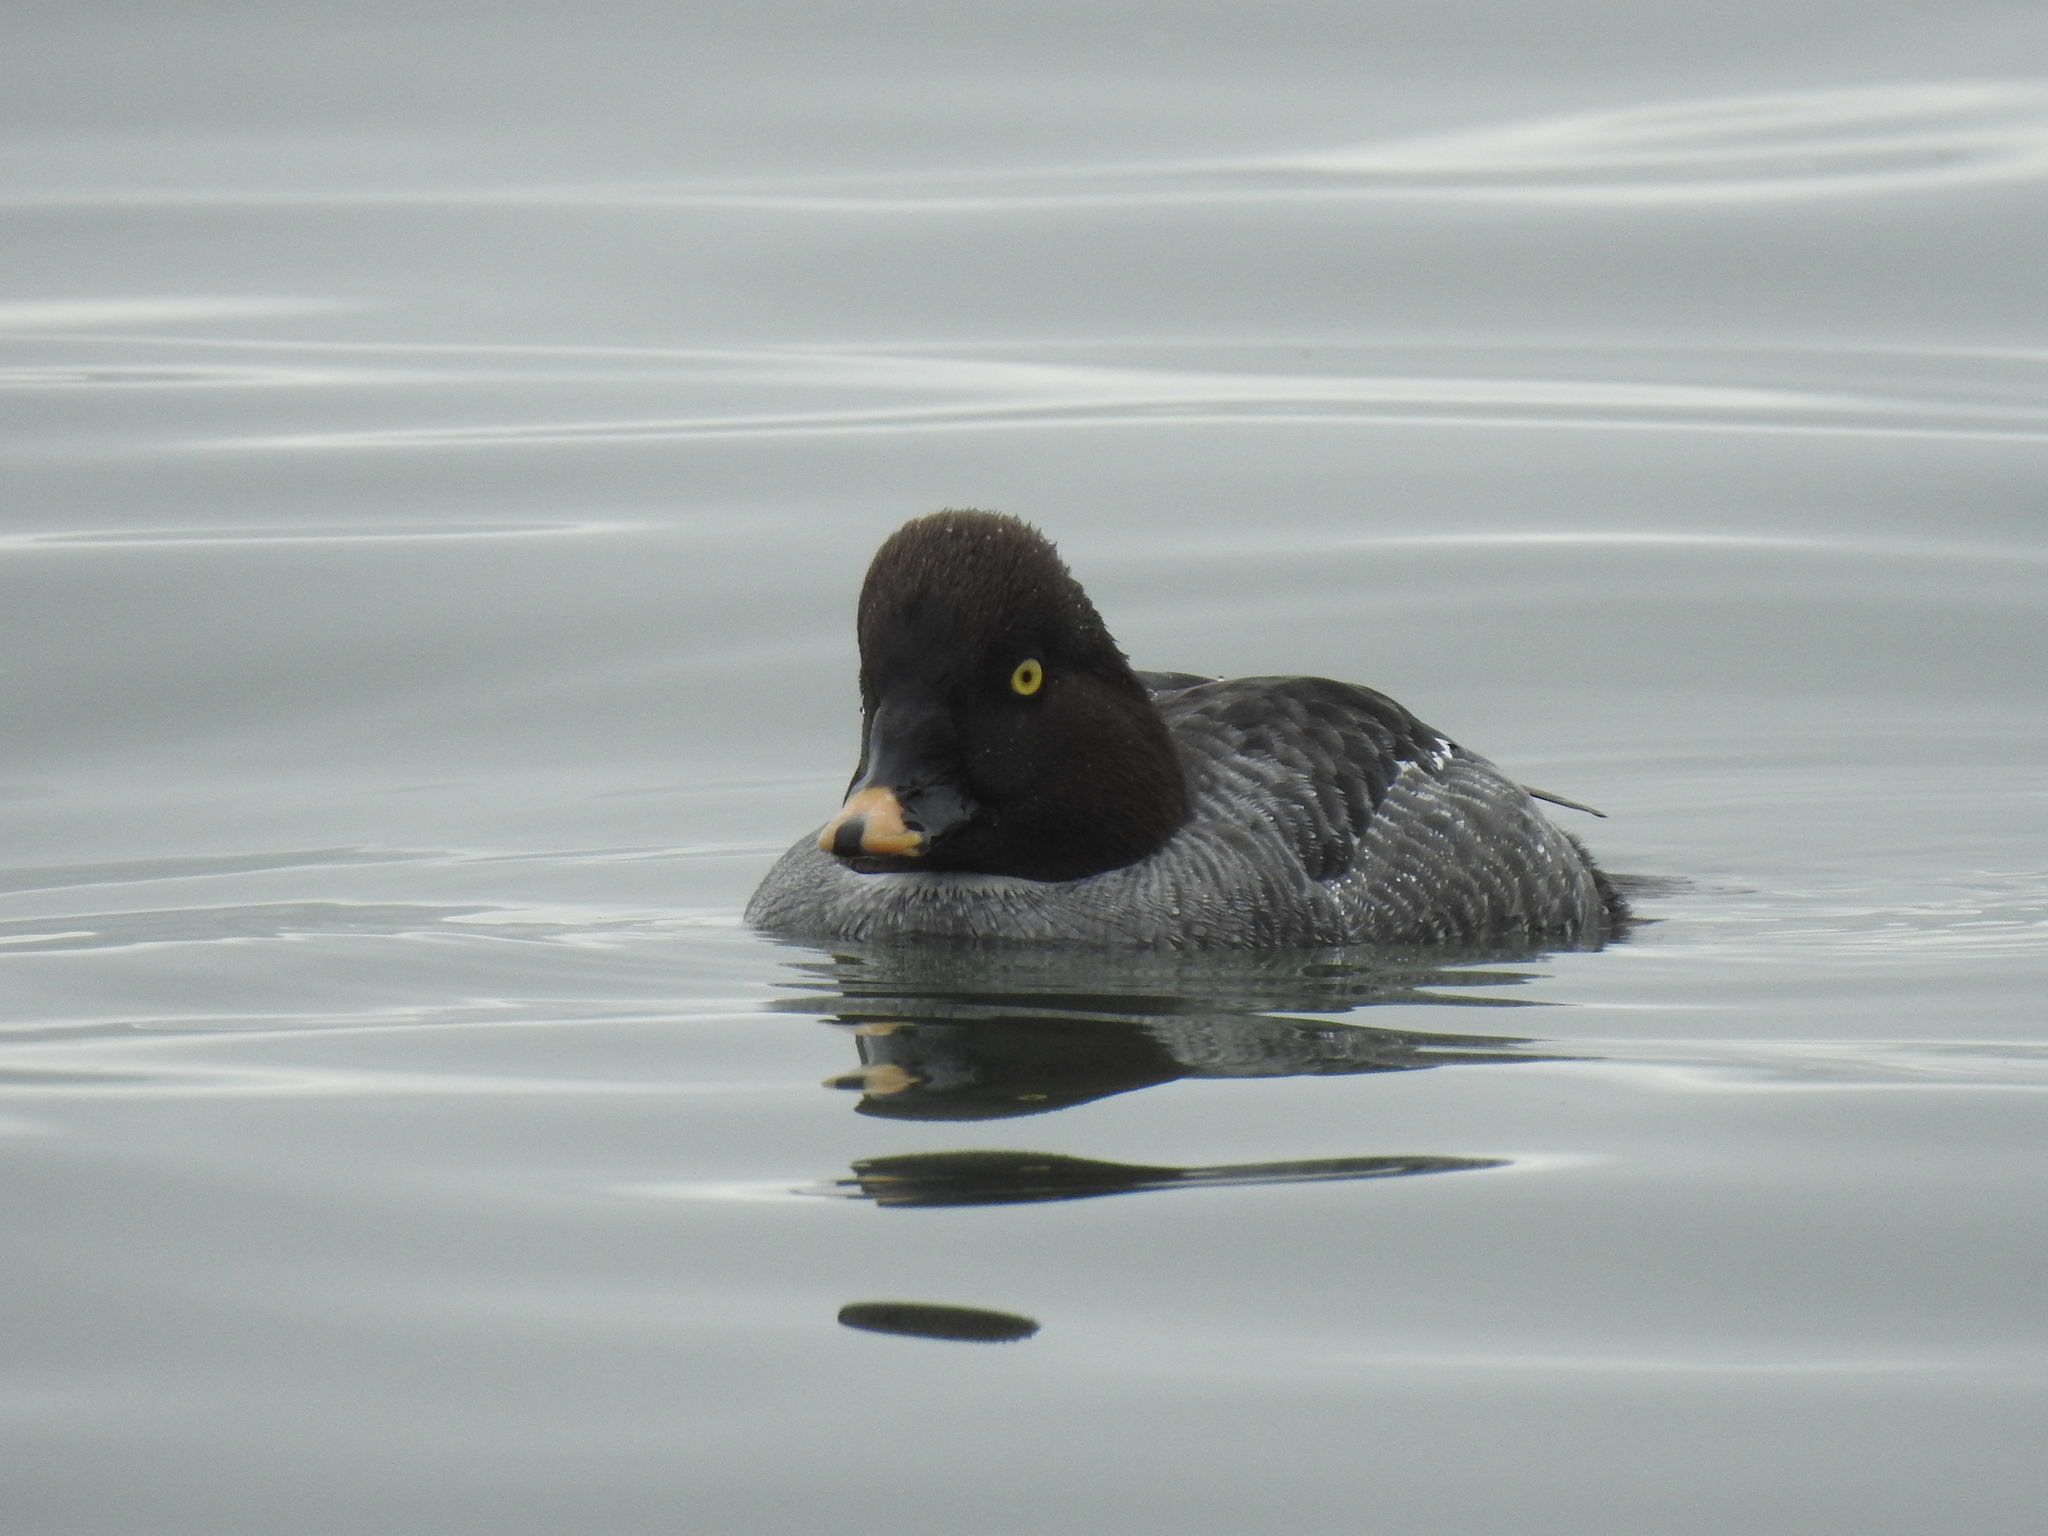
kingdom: Animalia
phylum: Chordata
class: Aves
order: Anseriformes
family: Anatidae
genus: Bucephala
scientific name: Bucephala clangula
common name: Common goldeneye
